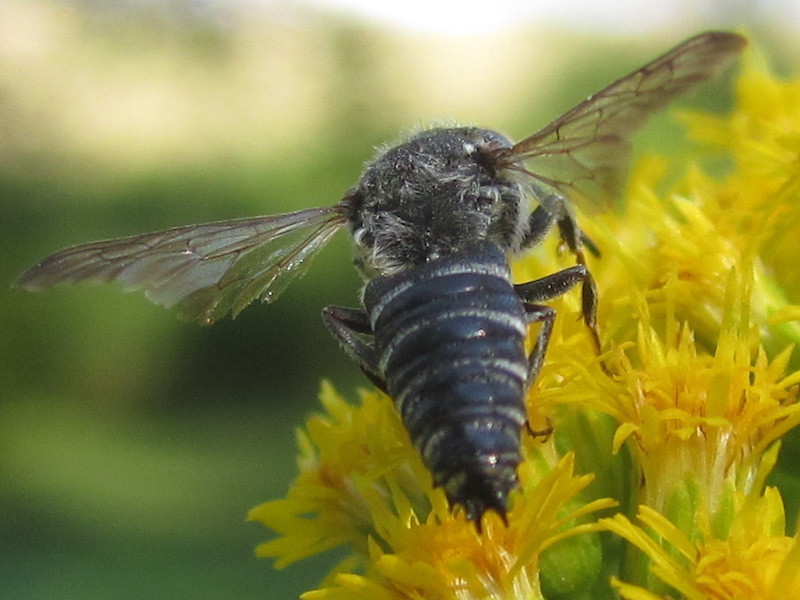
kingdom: Animalia
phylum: Arthropoda
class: Insecta
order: Hymenoptera
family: Megachilidae
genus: Coelioxys
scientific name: Coelioxys
